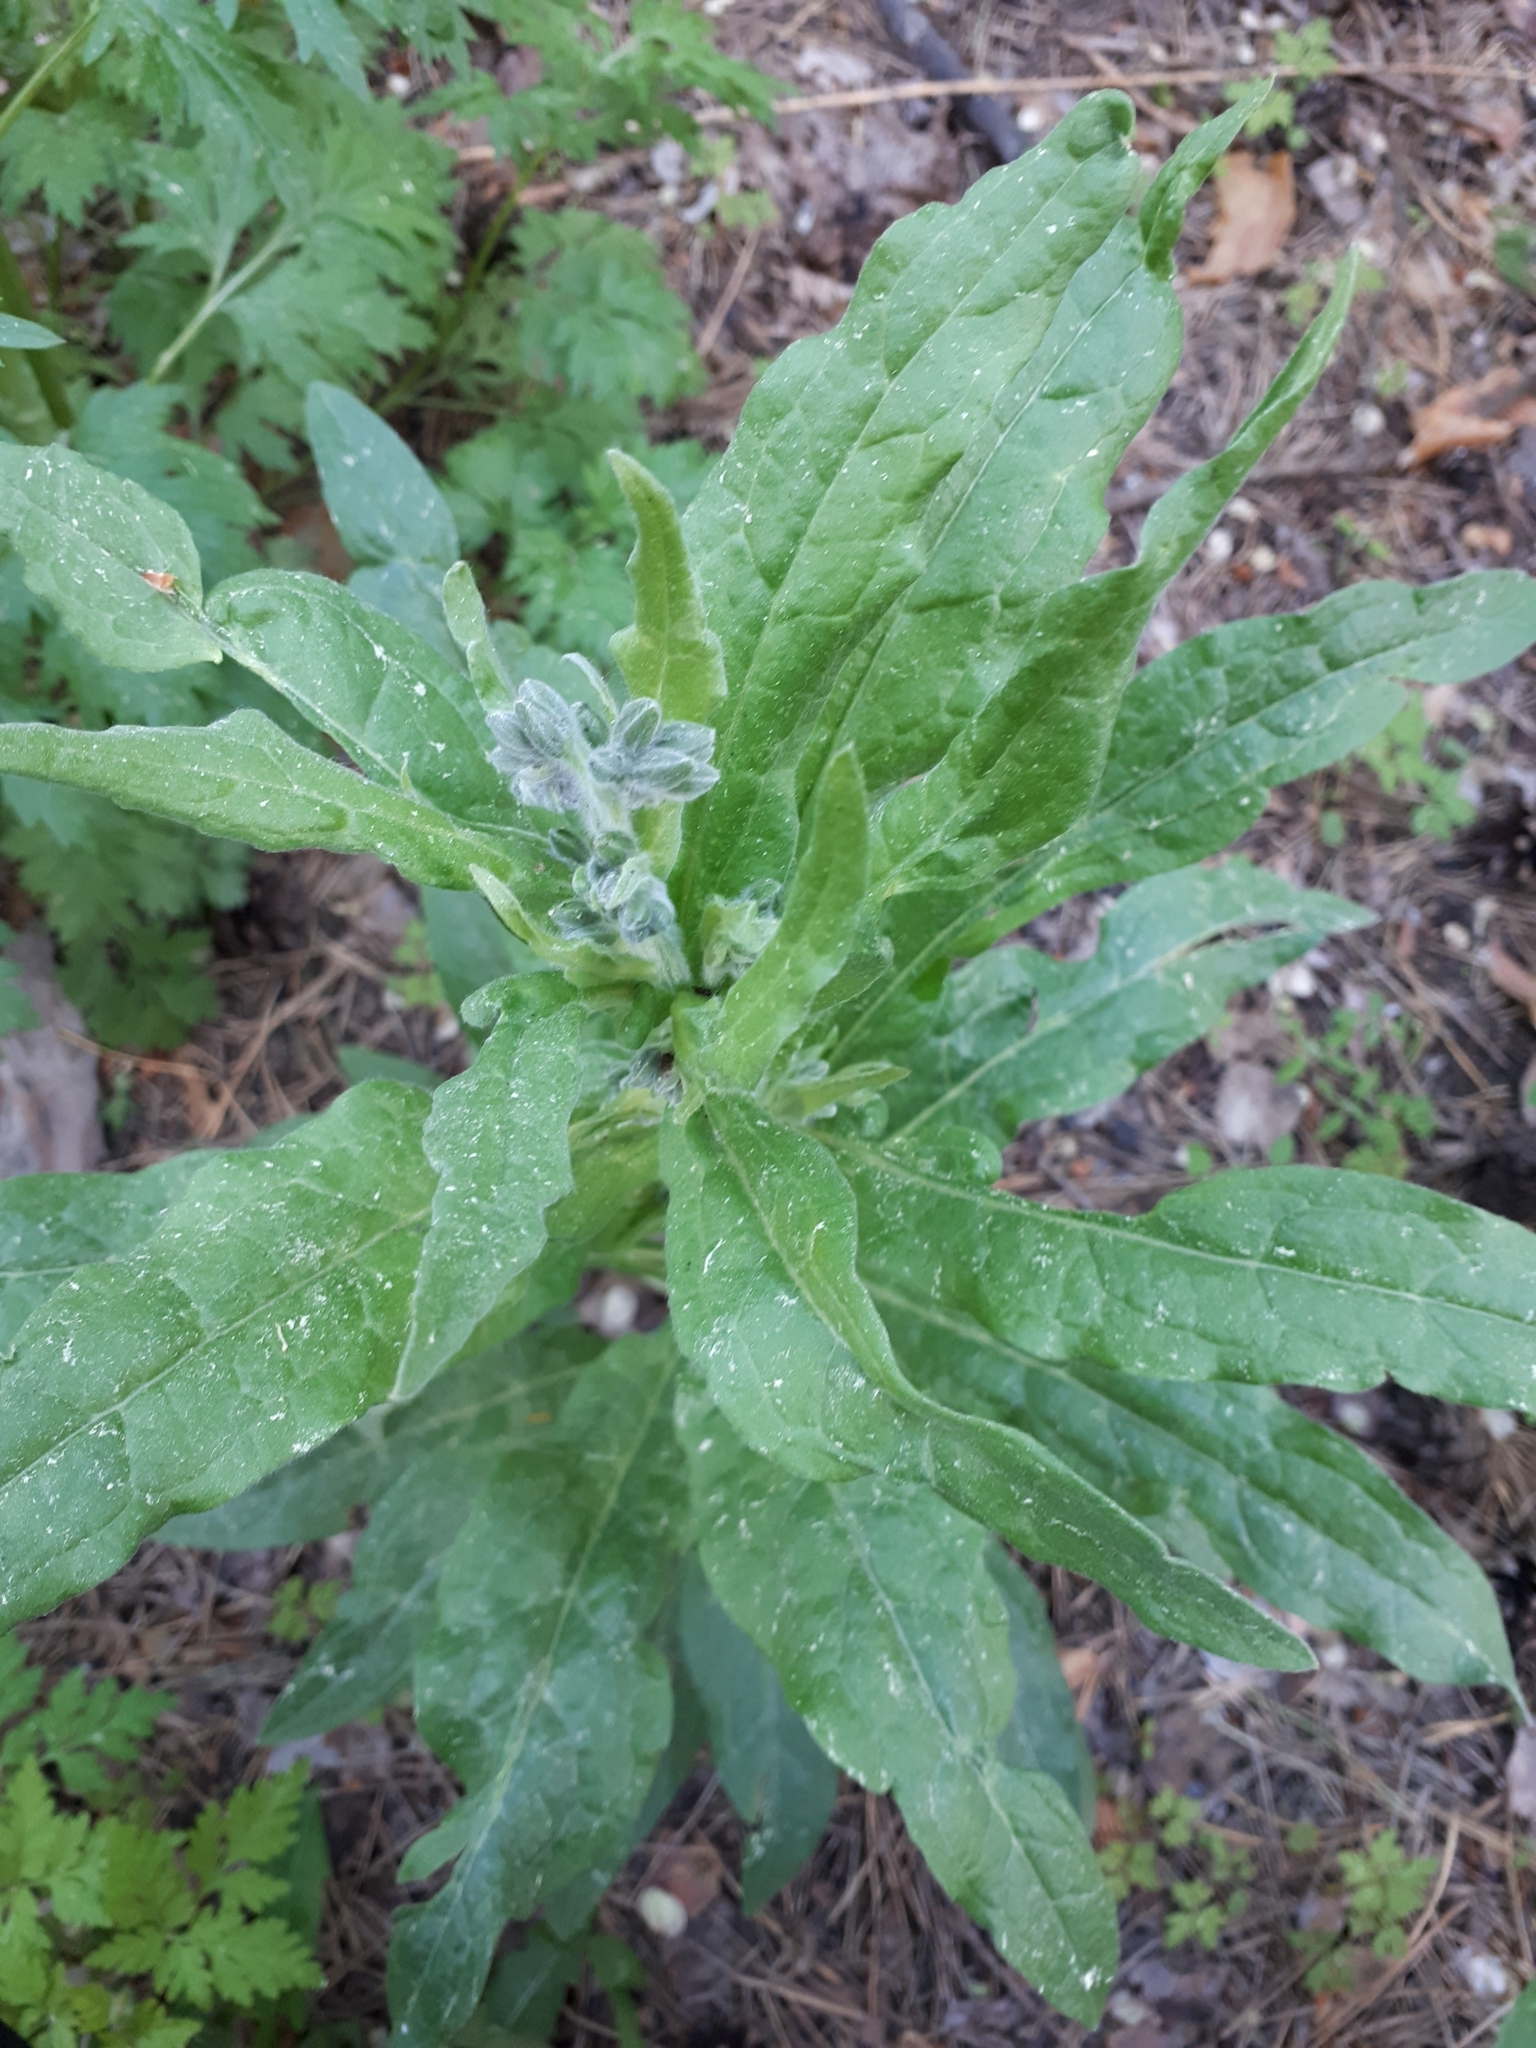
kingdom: Plantae
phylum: Tracheophyta
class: Magnoliopsida
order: Boraginales
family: Boraginaceae
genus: Cynoglossum
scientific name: Cynoglossum officinale
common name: Hound's-tongue
